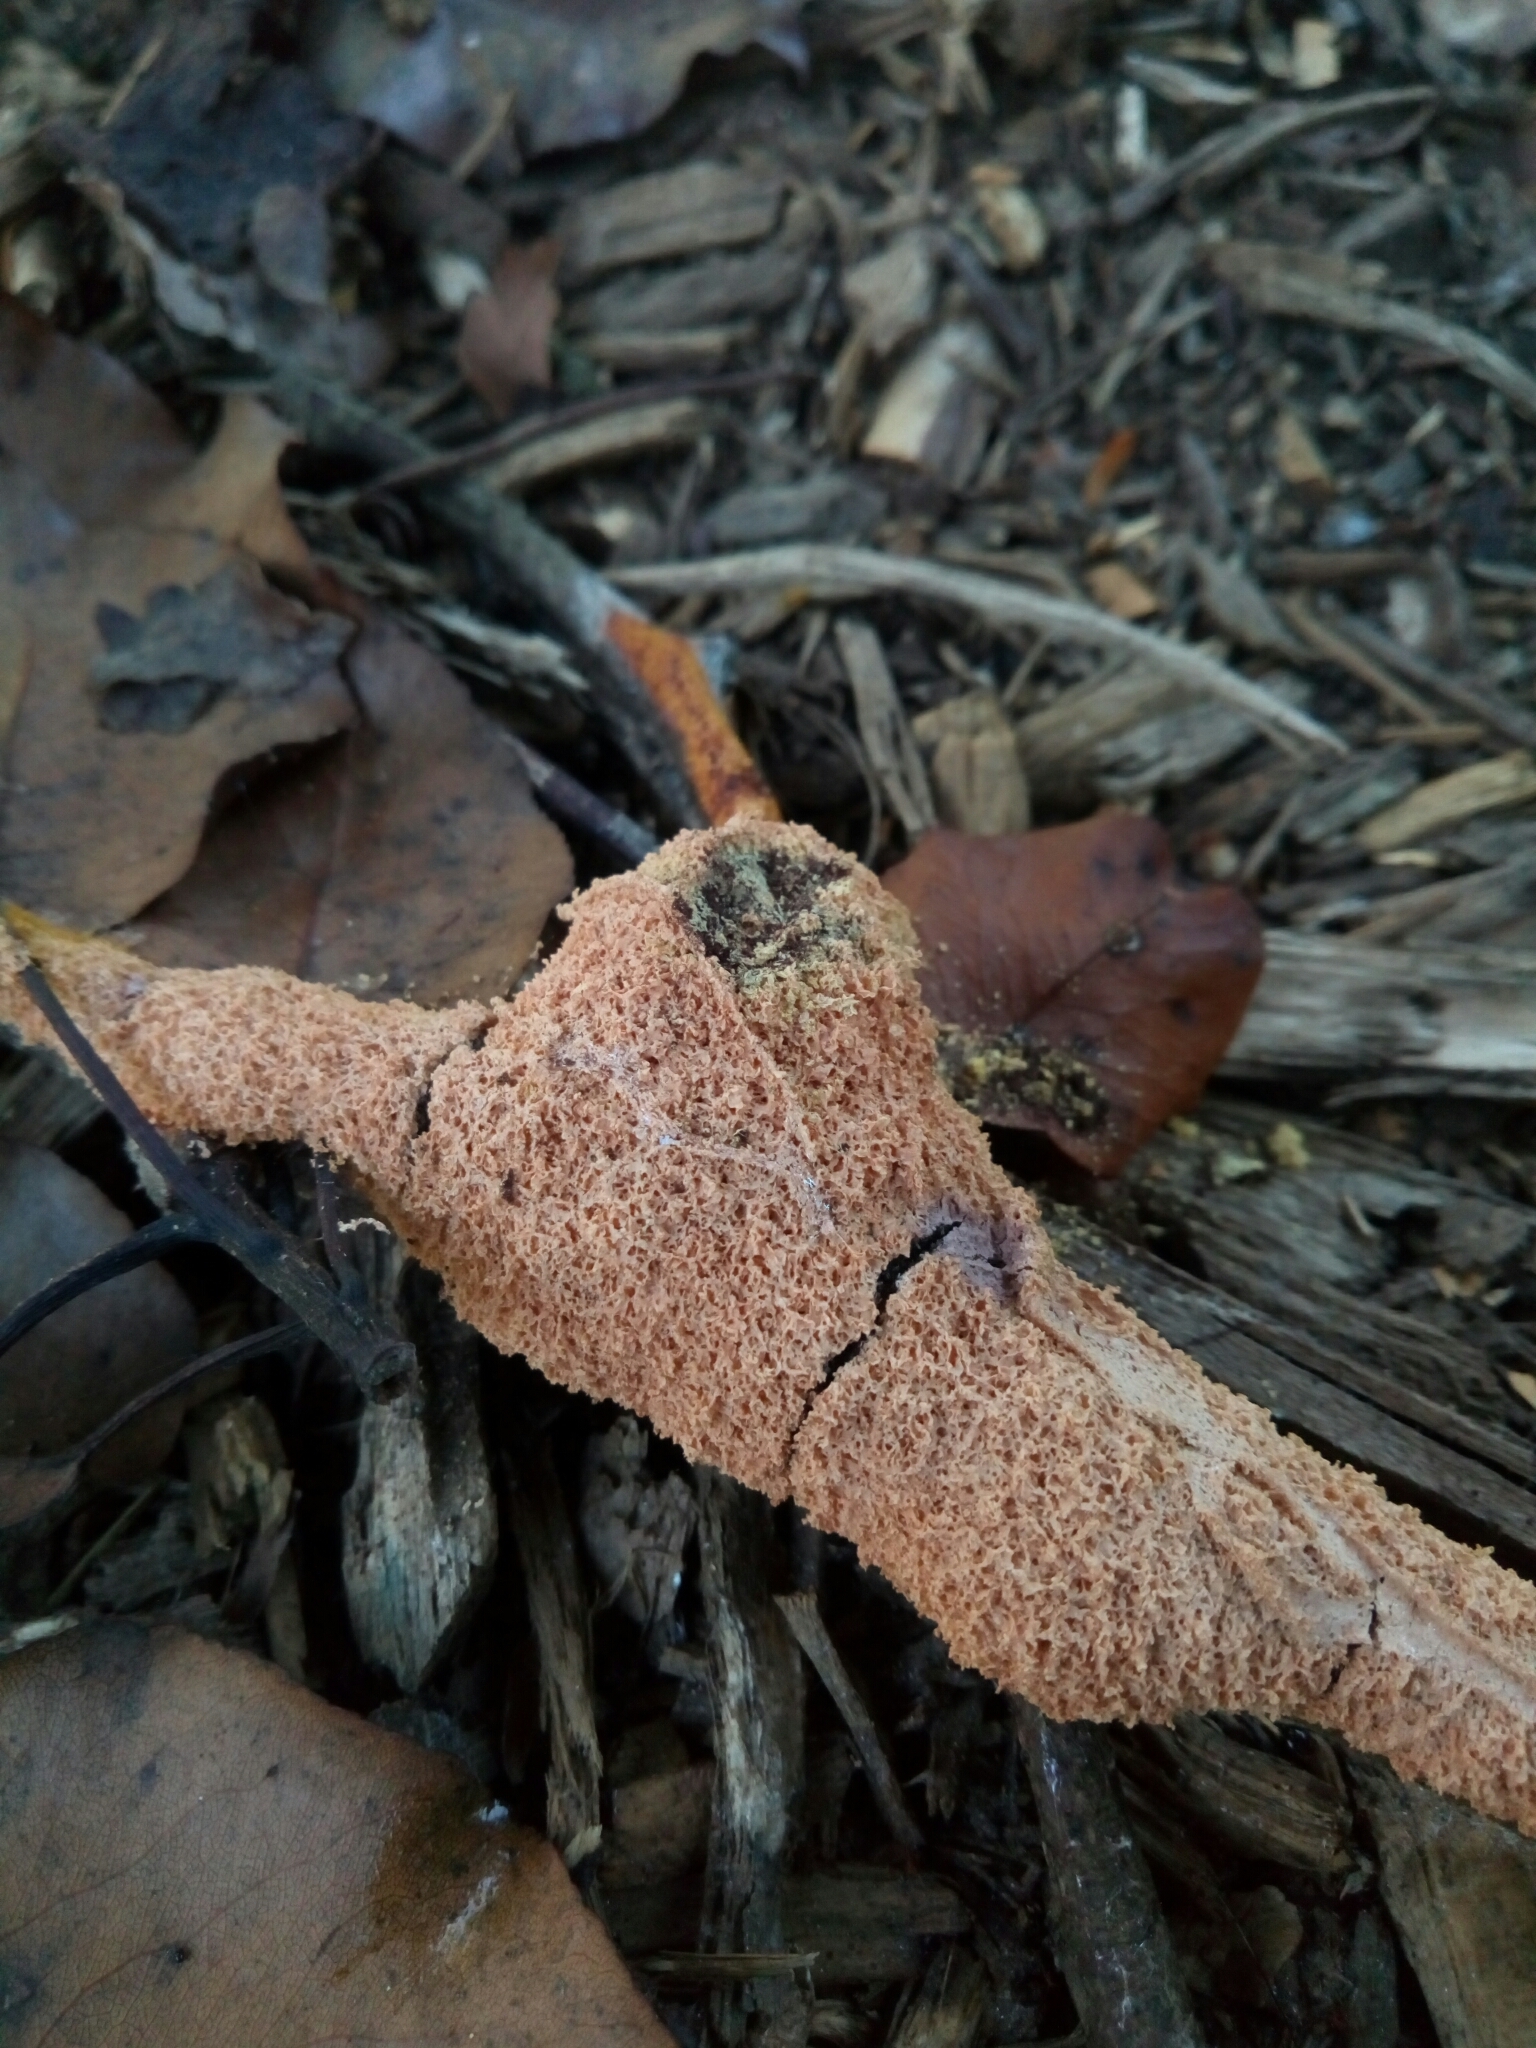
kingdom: Protozoa
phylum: Mycetozoa
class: Myxomycetes
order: Physarales
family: Physaraceae
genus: Fuligo
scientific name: Fuligo septica
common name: Dog vomit slime mold
